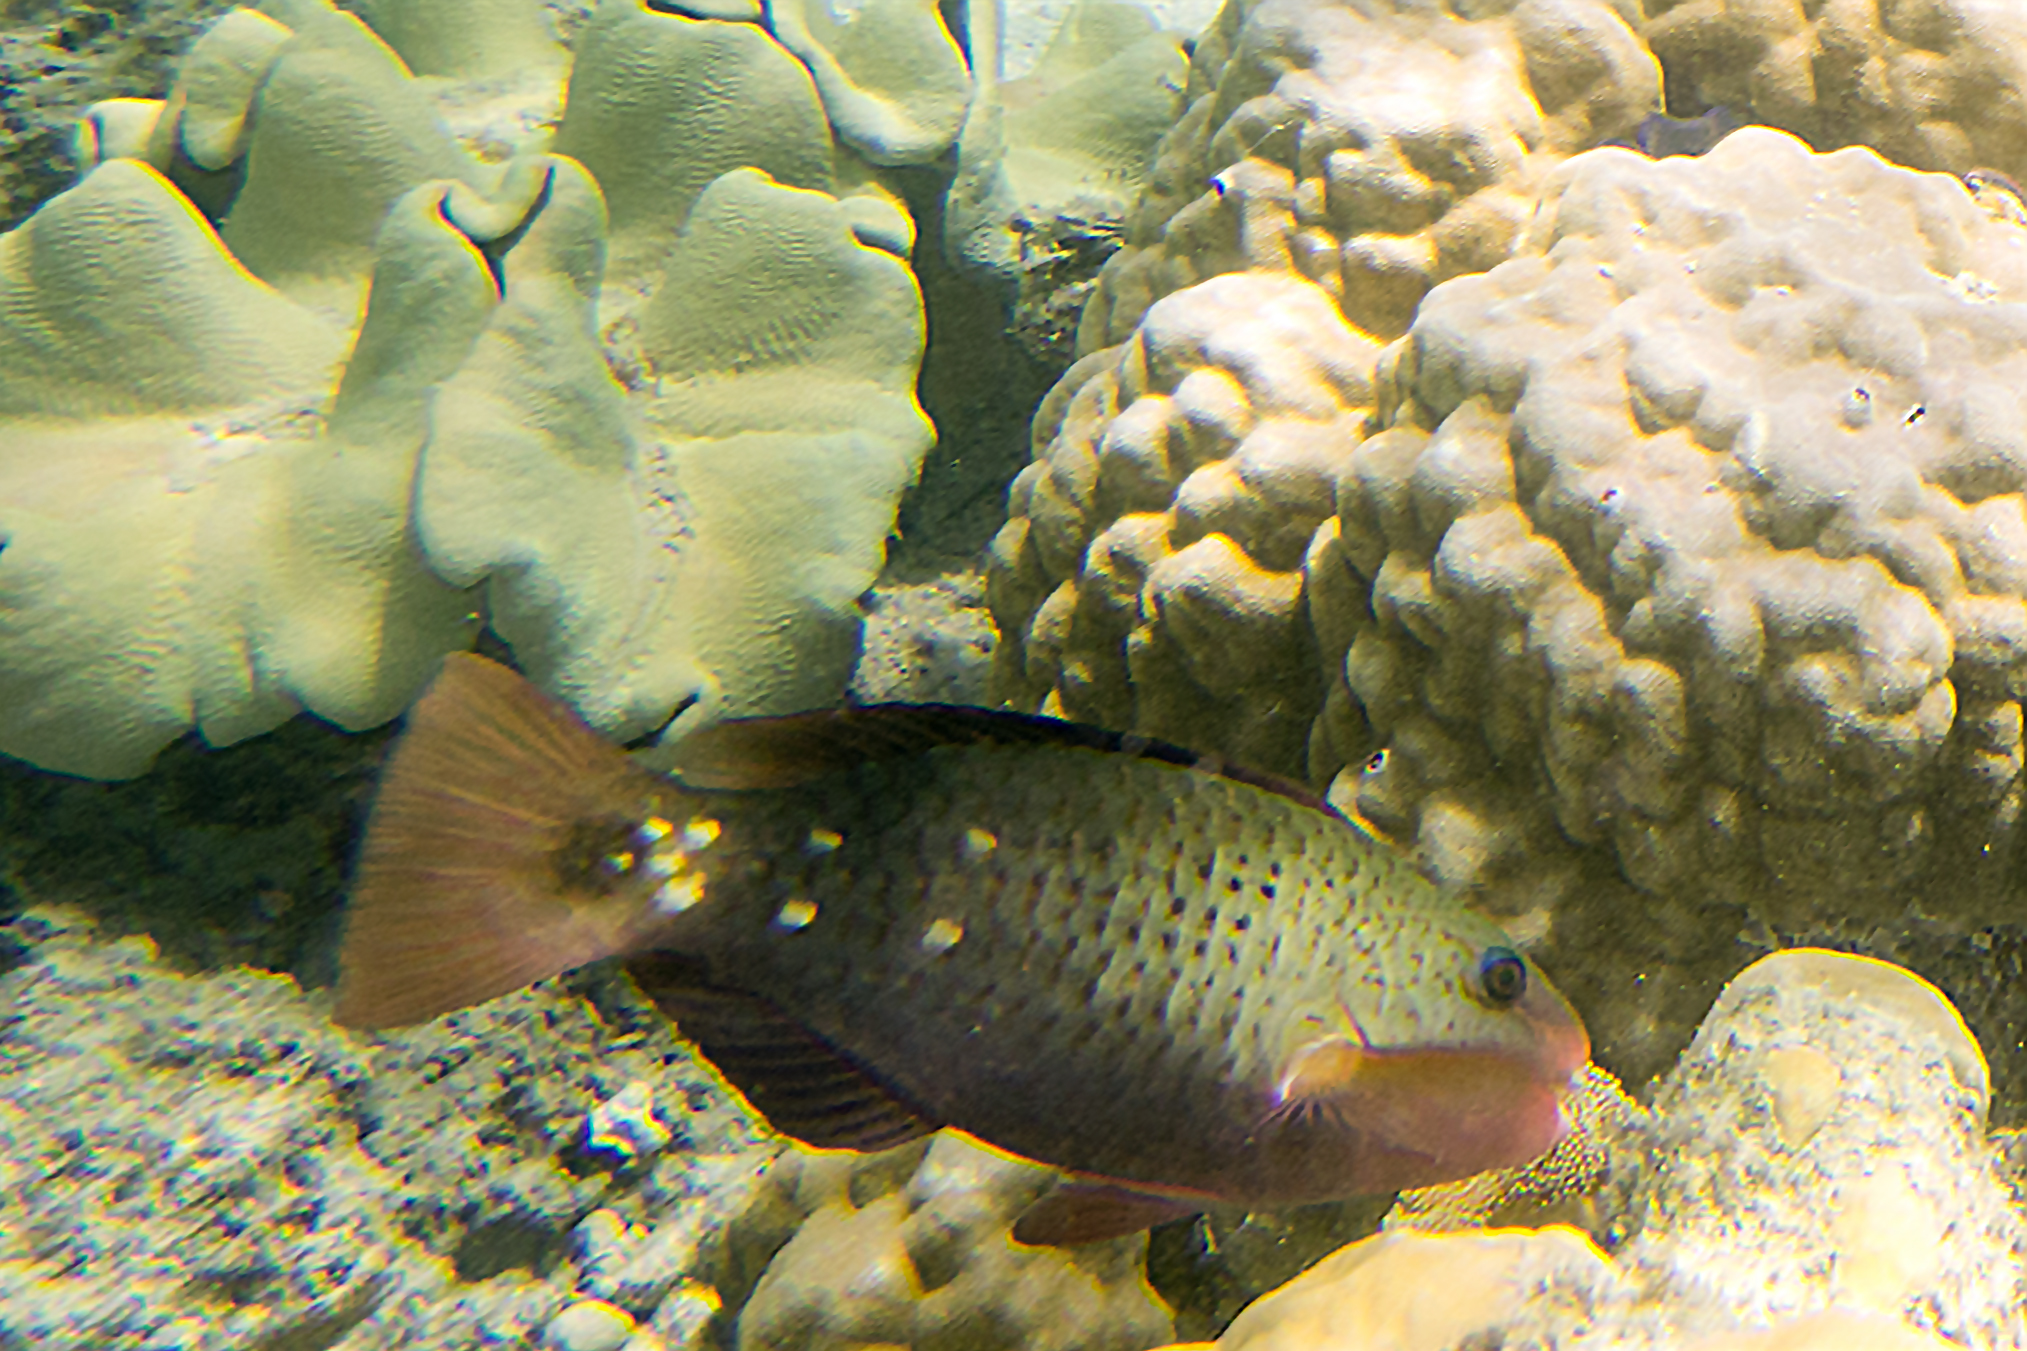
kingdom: Animalia
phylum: Chordata
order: Perciformes
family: Scaridae
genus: Chlorurus
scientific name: Chlorurus spilurus
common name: Bullethead parrotfish
